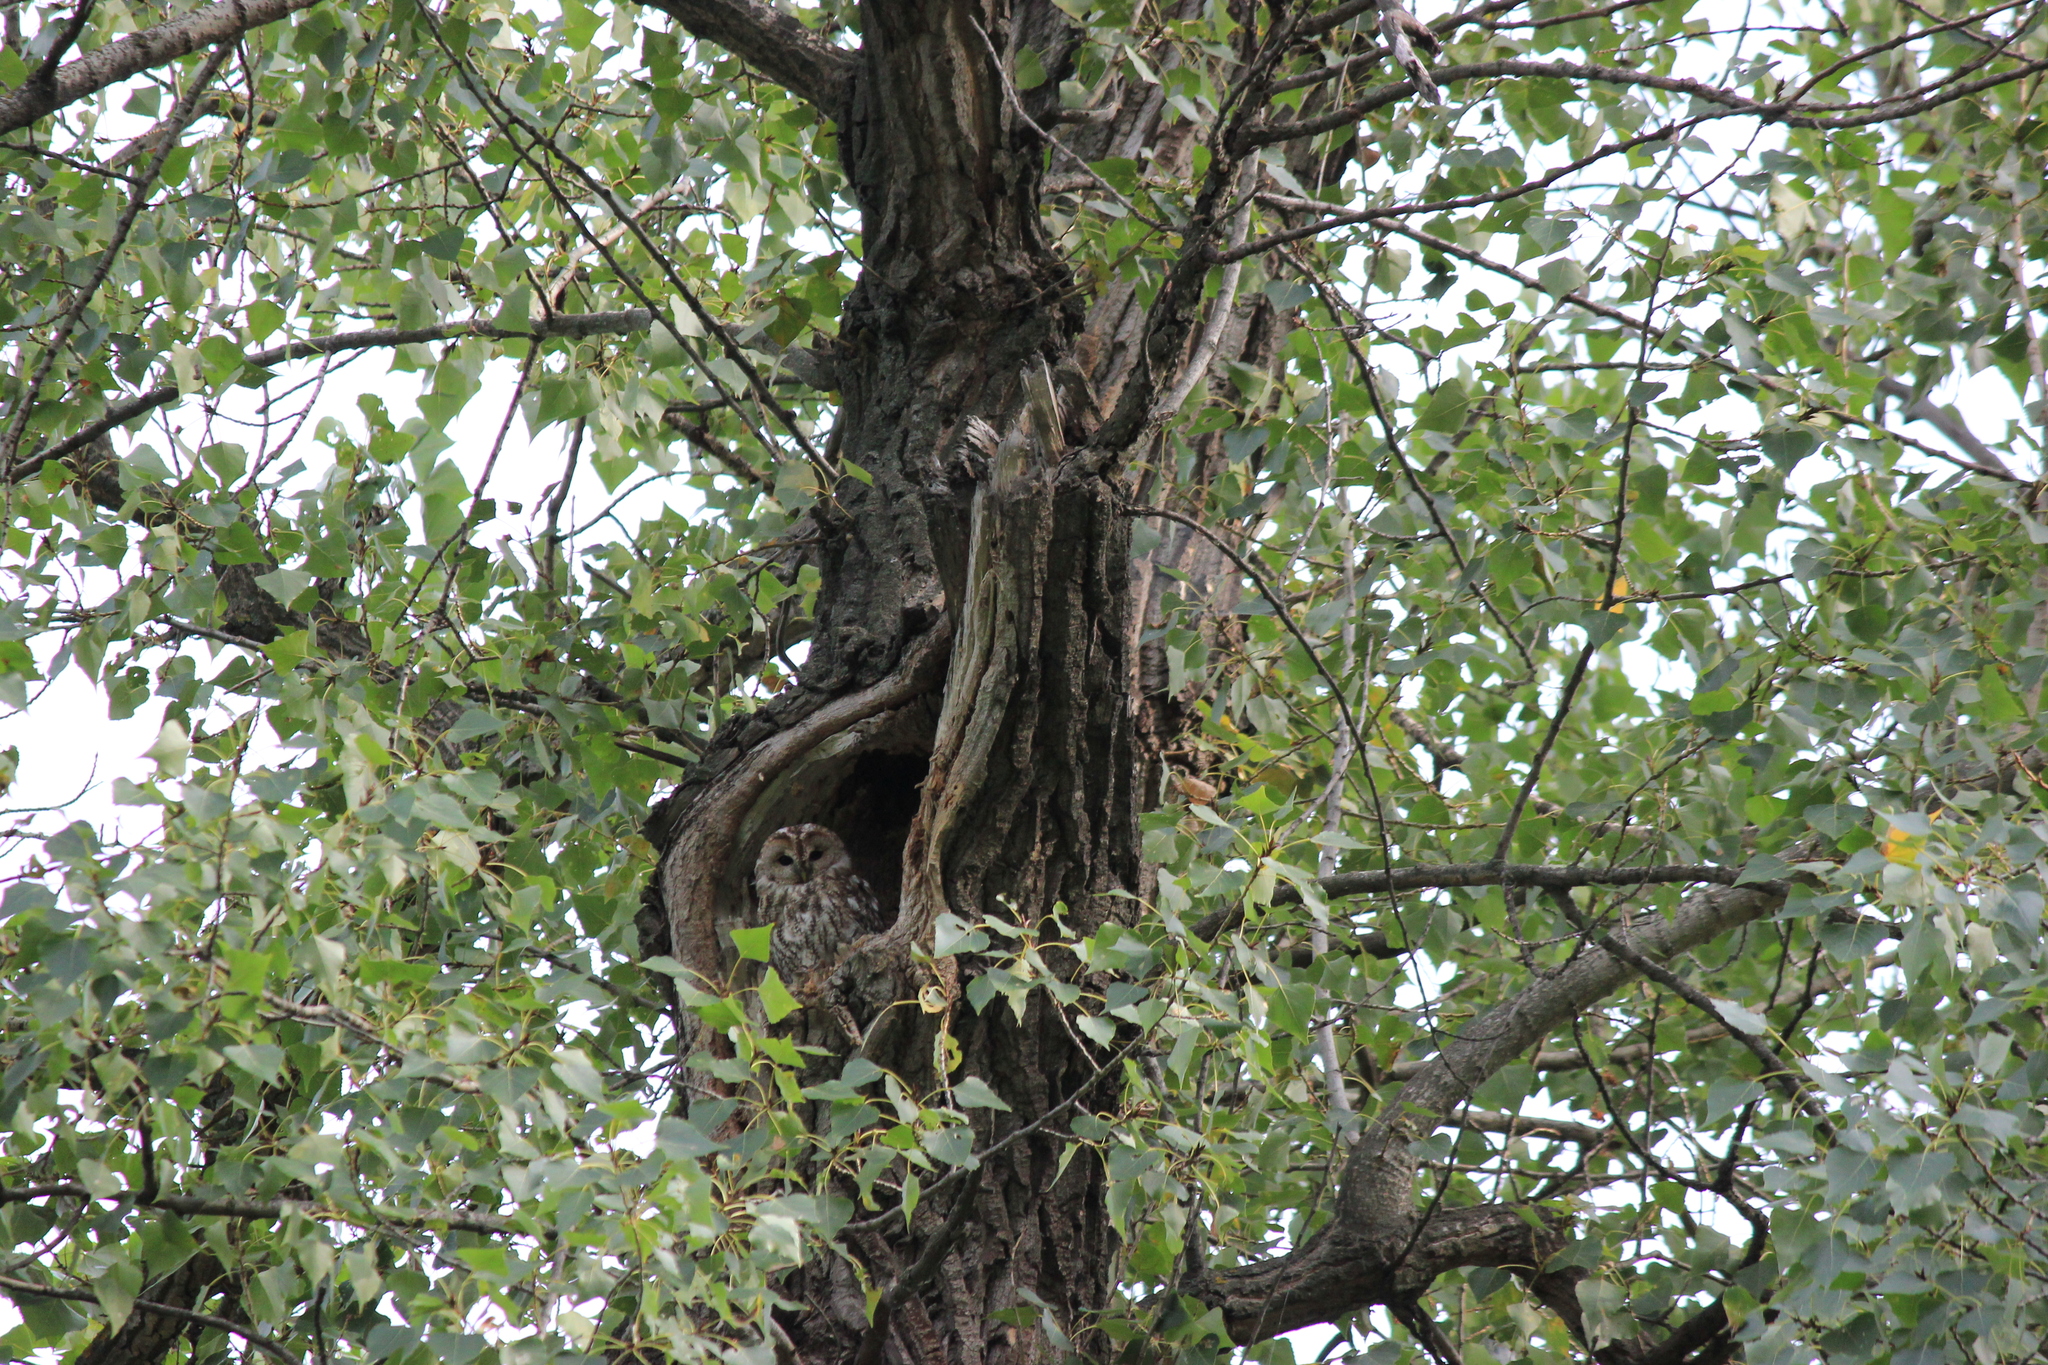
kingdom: Animalia
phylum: Chordata
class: Aves
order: Strigiformes
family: Strigidae
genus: Strix
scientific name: Strix aluco
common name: Tawny owl
